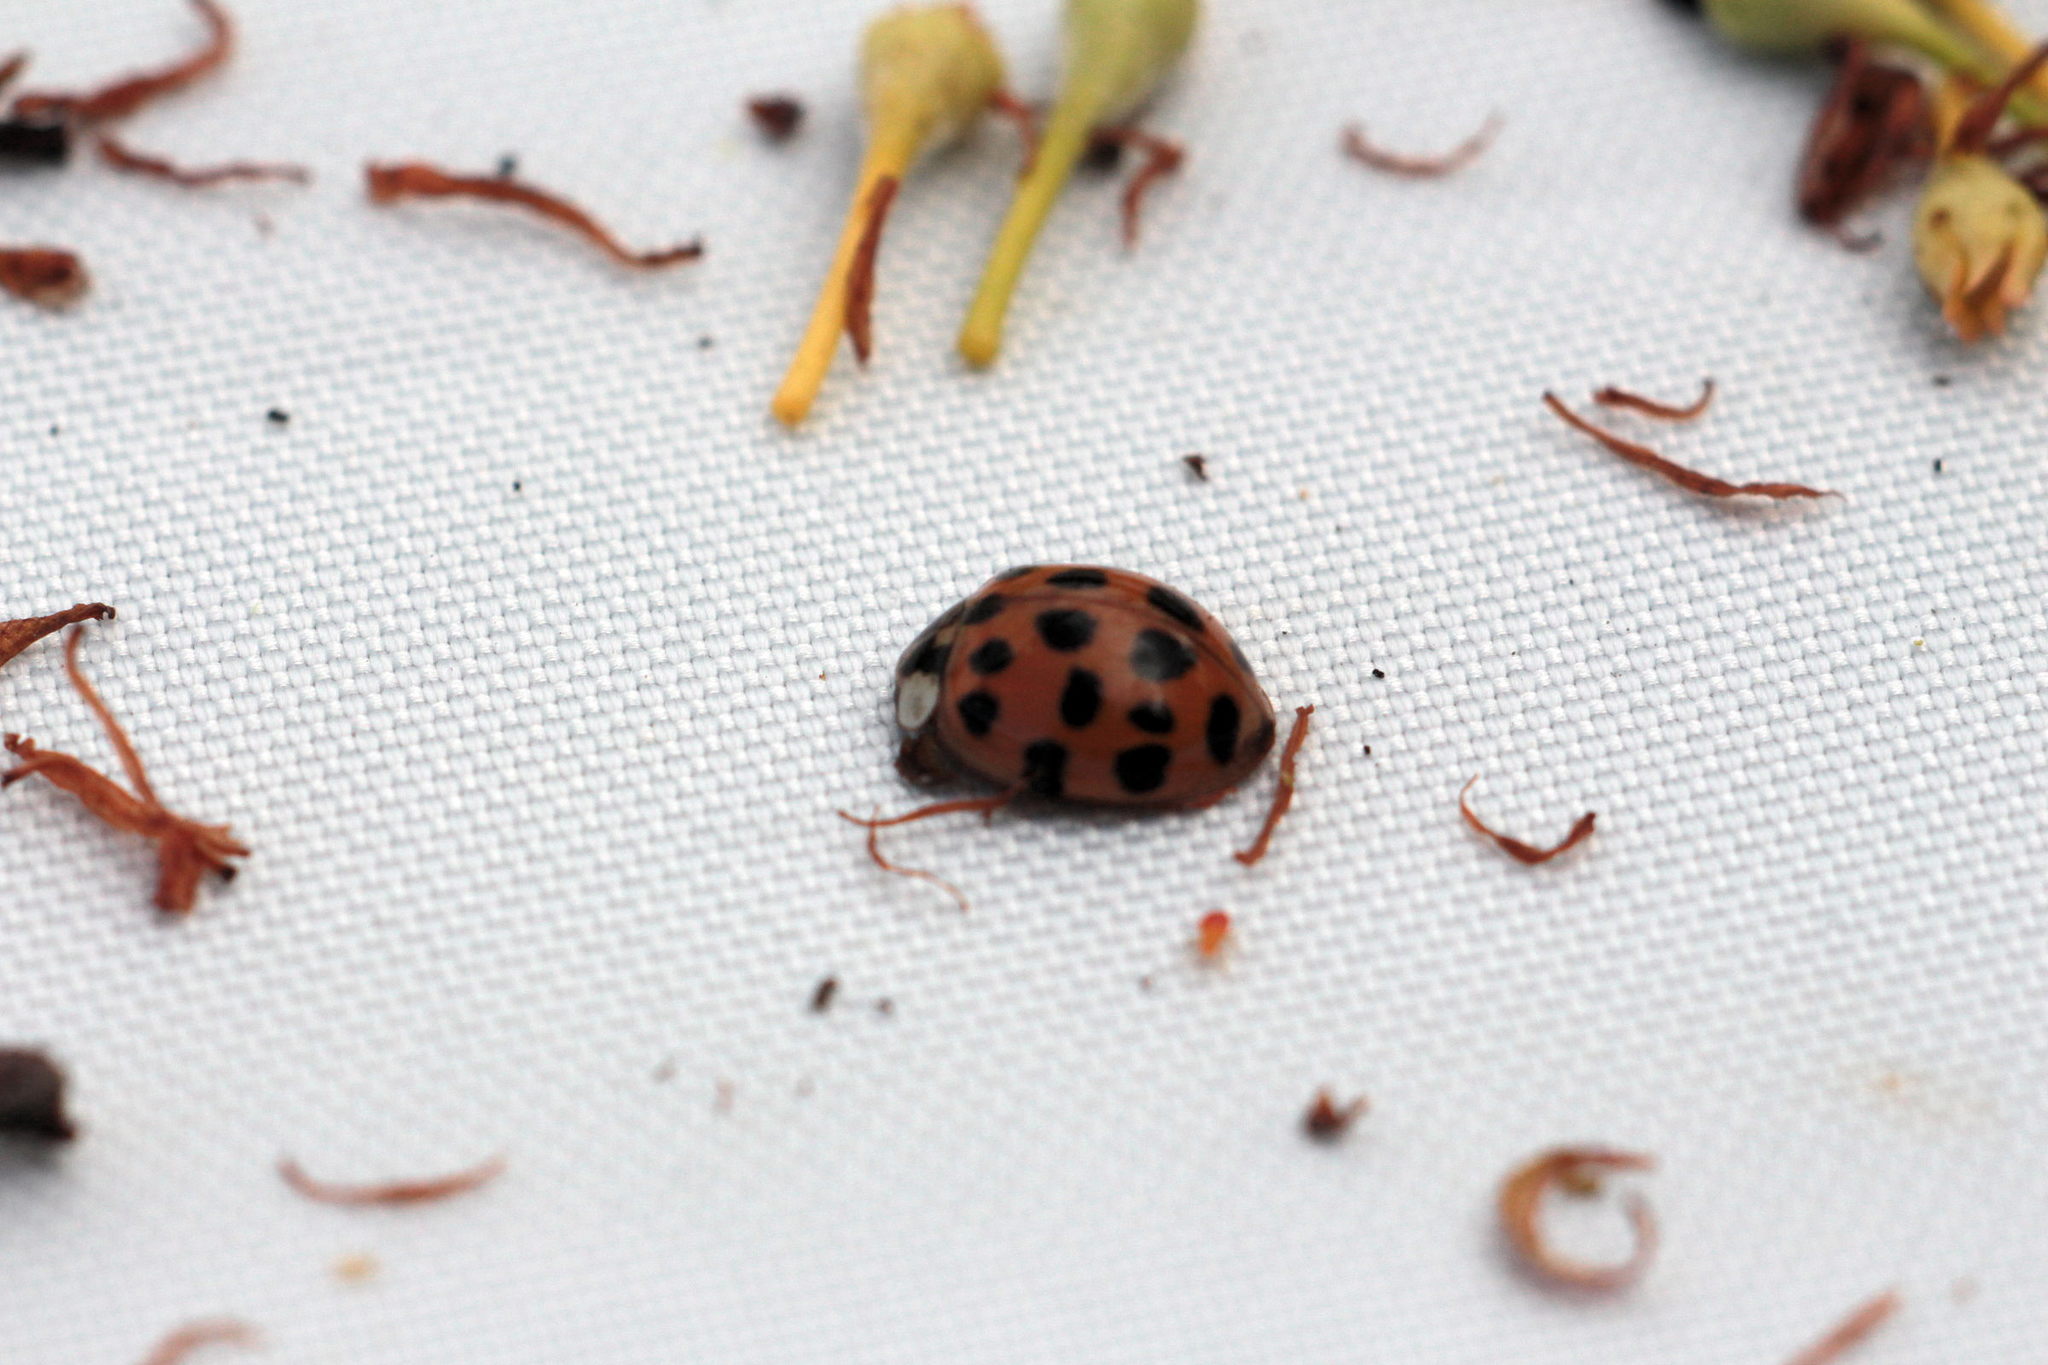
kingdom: Animalia
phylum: Arthropoda
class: Insecta
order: Coleoptera
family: Coccinellidae
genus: Harmonia
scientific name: Harmonia axyridis
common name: Harlequin ladybird
